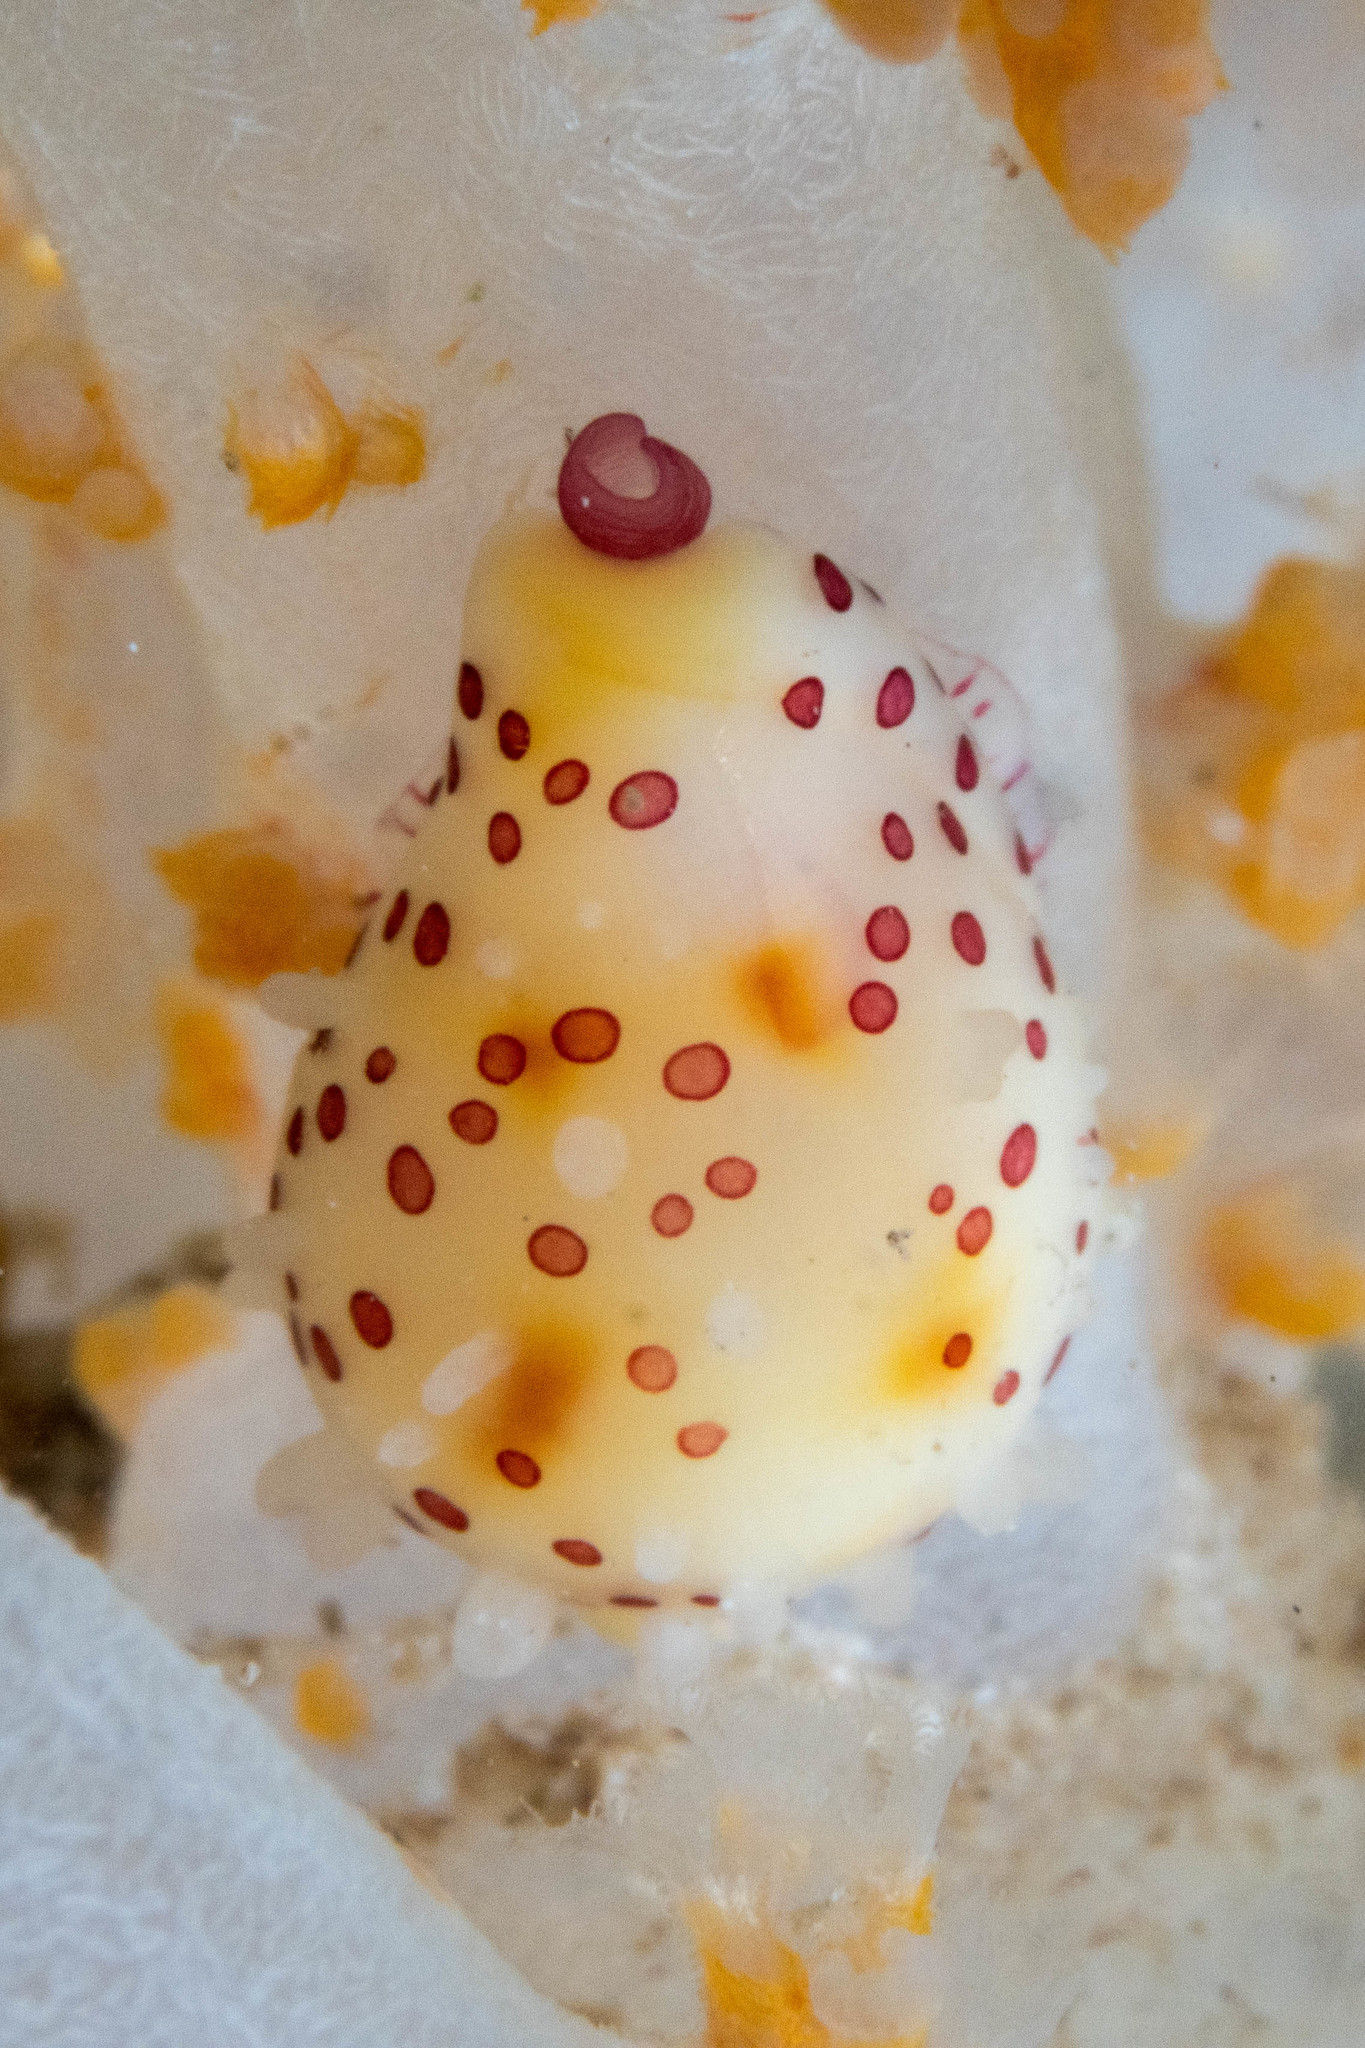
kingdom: Animalia
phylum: Mollusca
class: Gastropoda
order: Littorinimorpha
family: Ovulidae
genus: Diminovula
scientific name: Diminovula aurantiomacula
